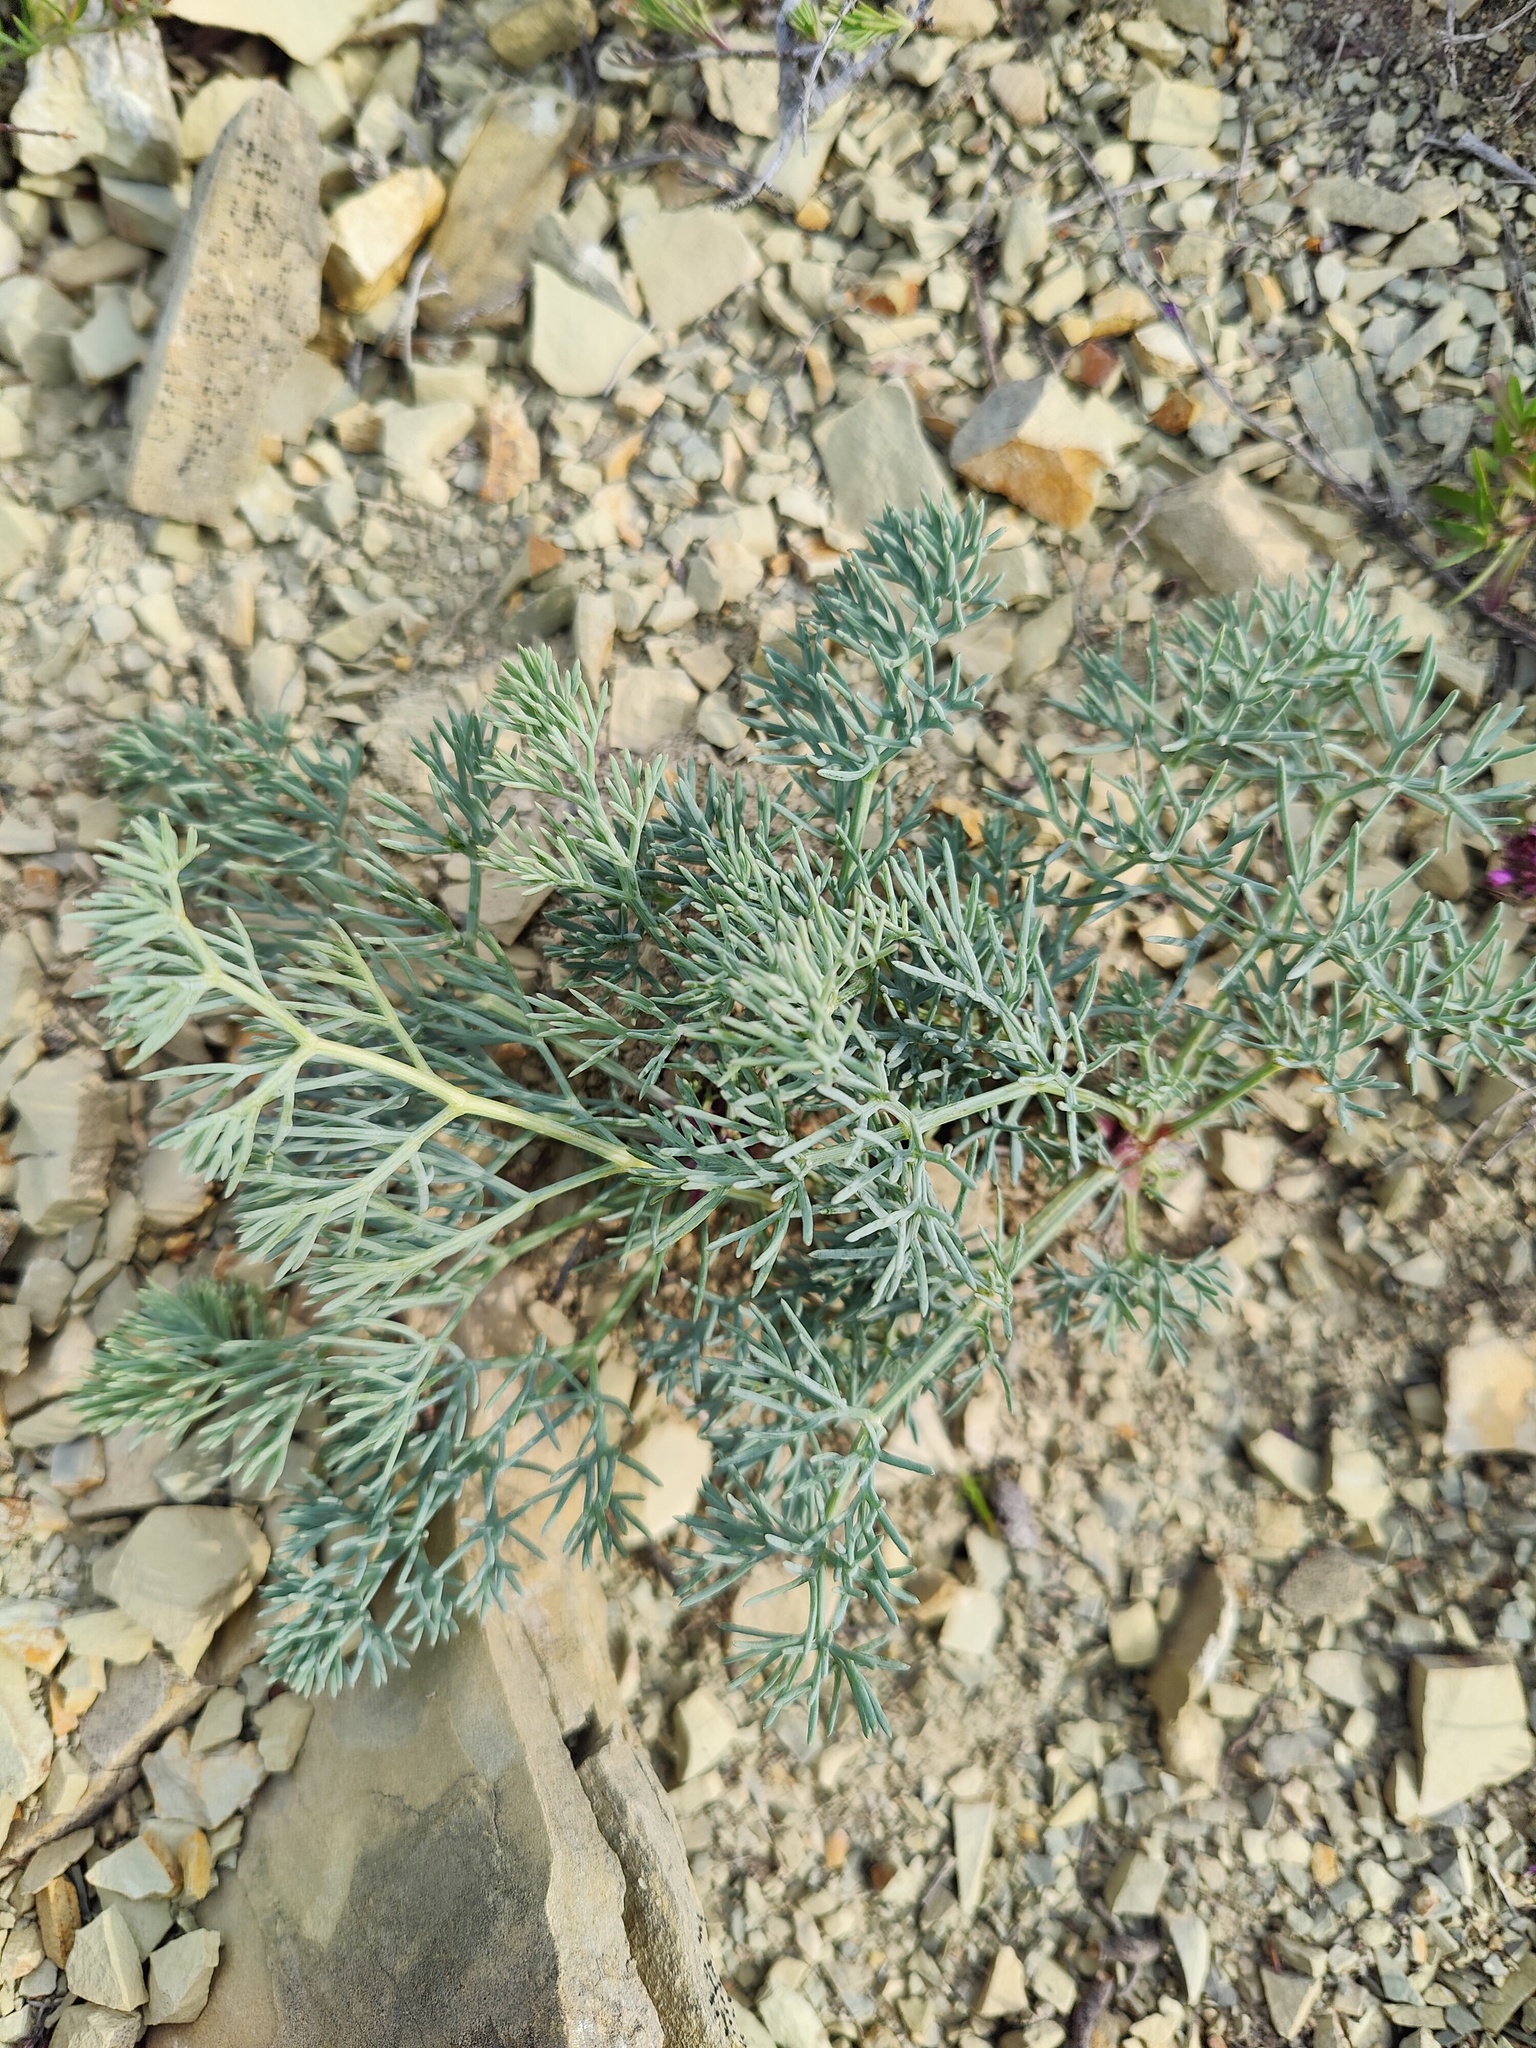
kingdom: Plantae
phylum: Tracheophyta
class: Magnoliopsida
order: Apiales
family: Apiaceae
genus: Seseli
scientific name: Seseli ponticum
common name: Pontic seseli
